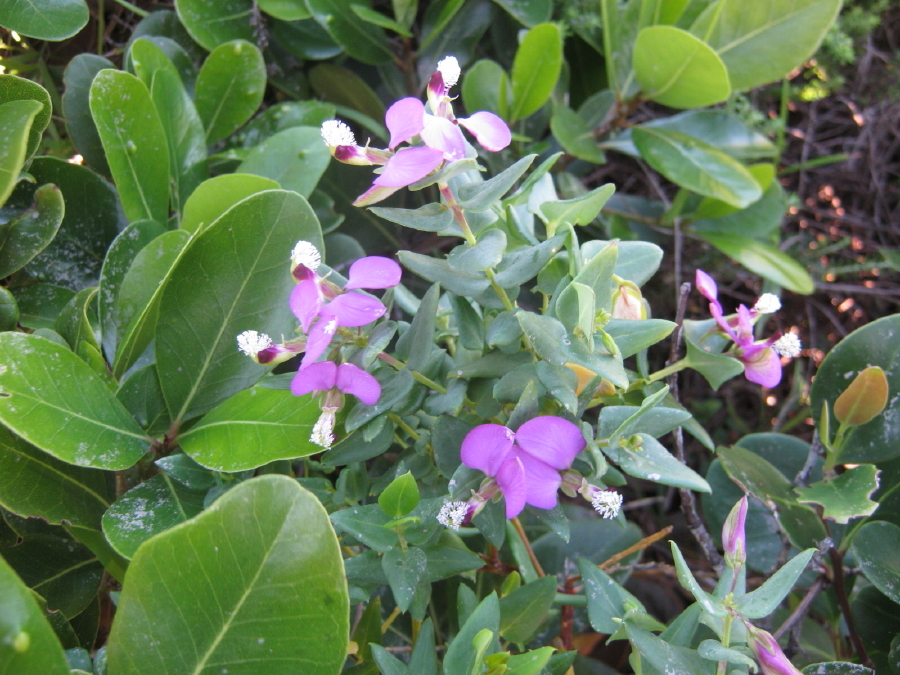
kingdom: Plantae
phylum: Tracheophyta
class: Magnoliopsida
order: Fabales
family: Polygalaceae
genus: Polygala
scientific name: Polygala fruticosa
